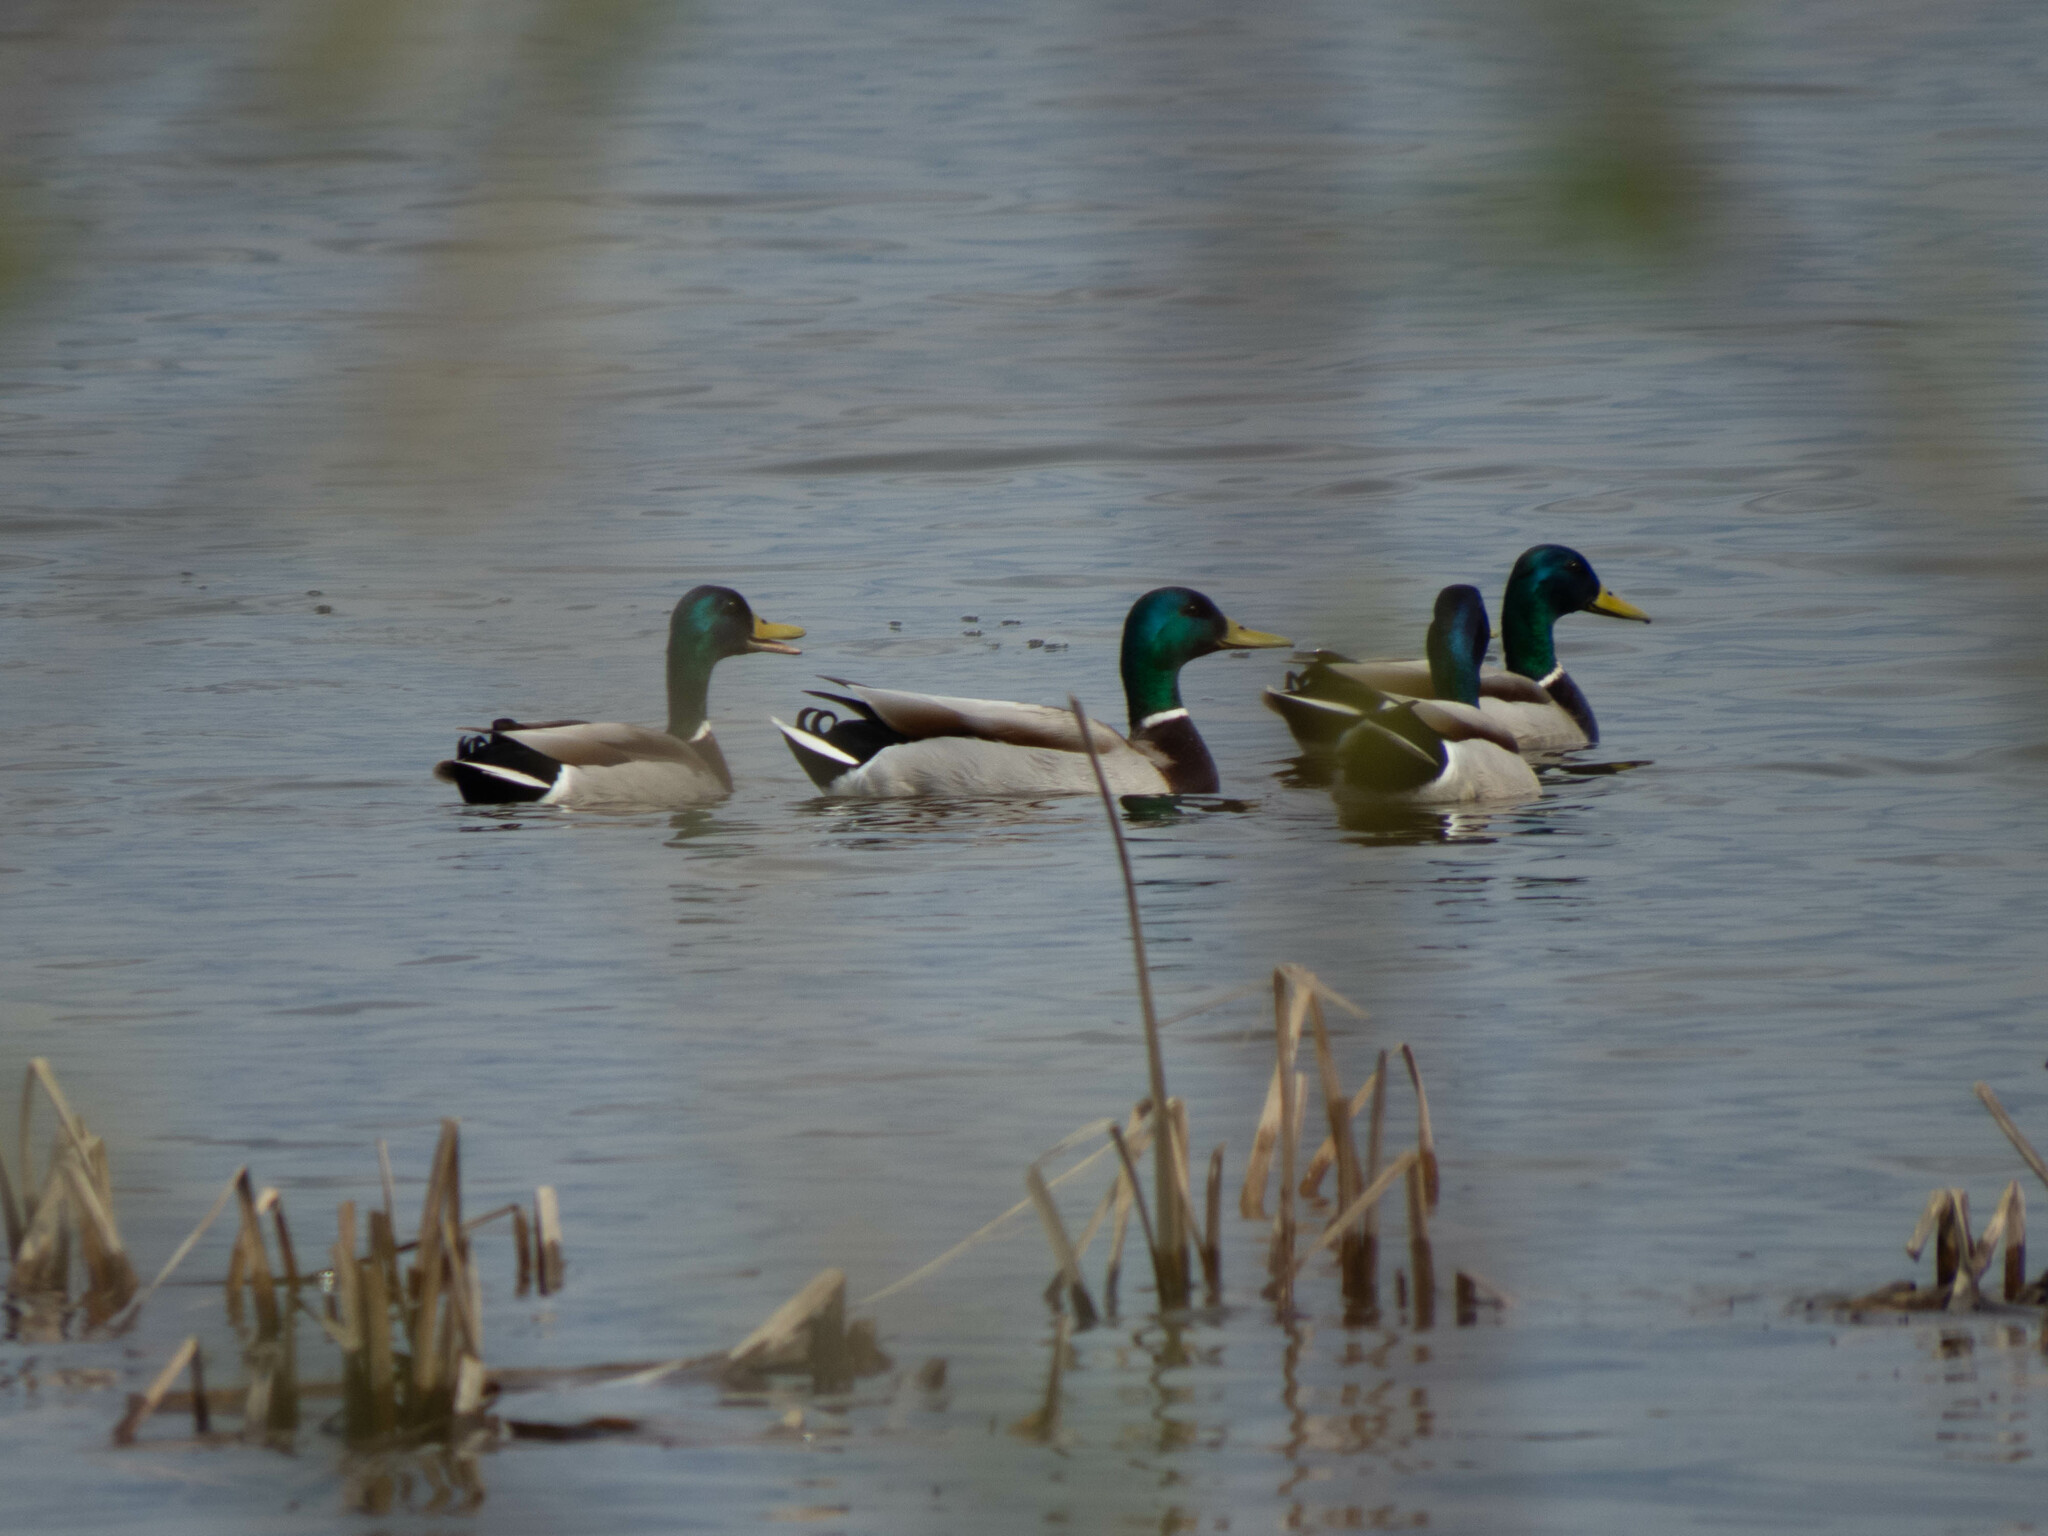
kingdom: Animalia
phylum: Chordata
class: Aves
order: Anseriformes
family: Anatidae
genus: Anas
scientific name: Anas platyrhynchos
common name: Mallard
